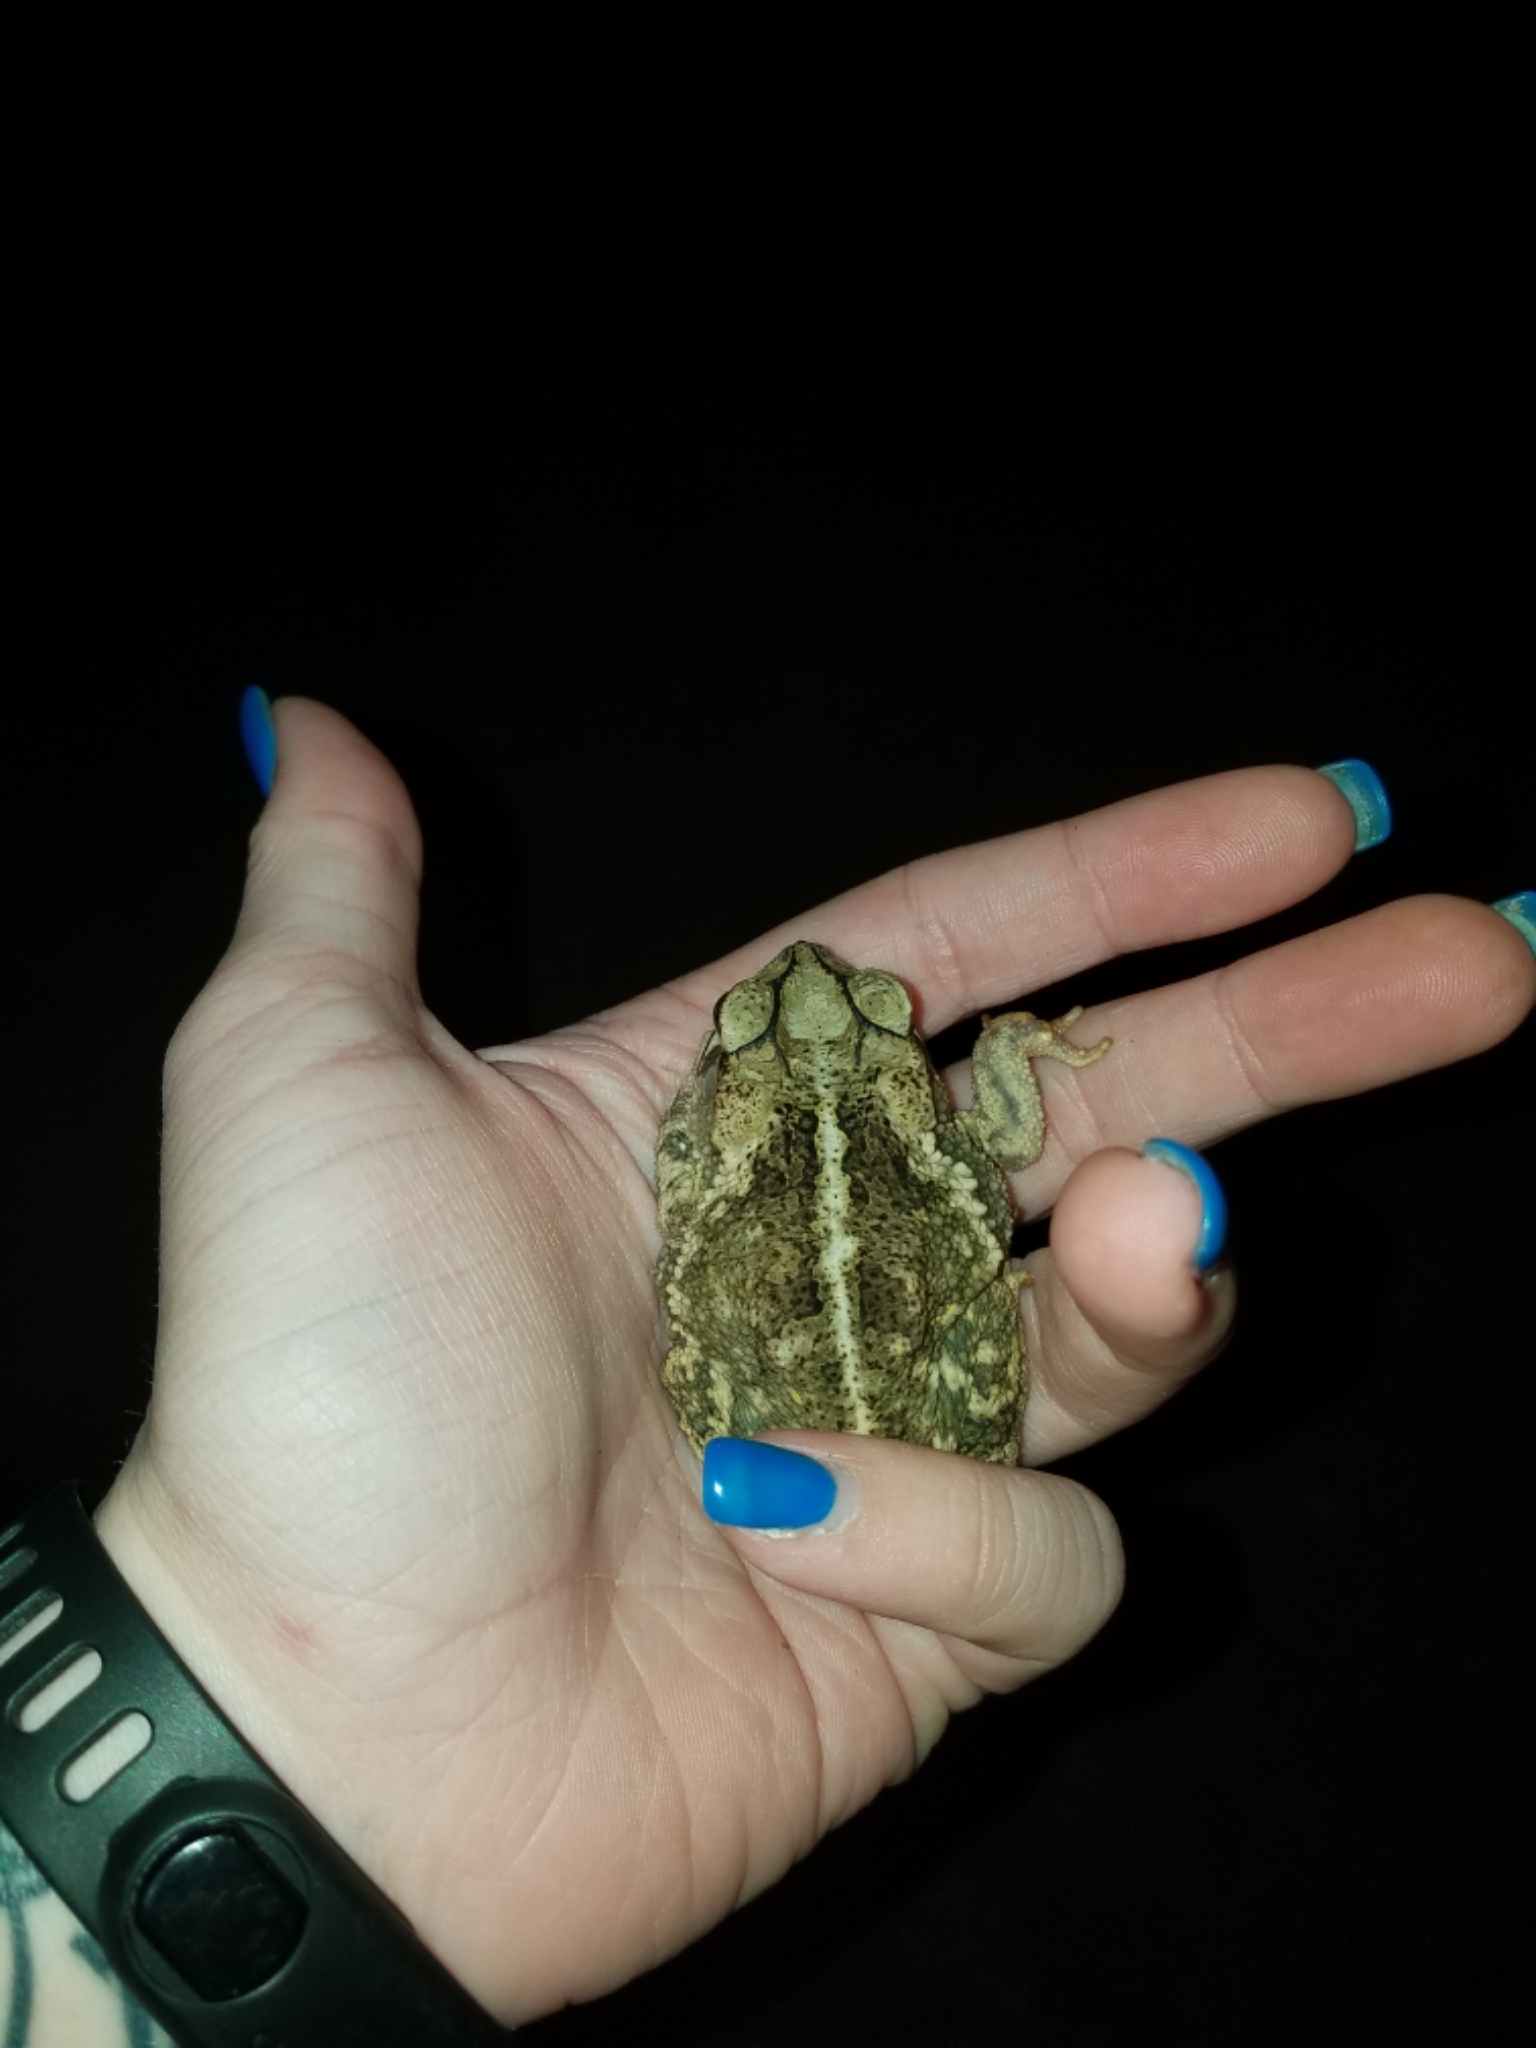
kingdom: Animalia
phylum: Chordata
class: Amphibia
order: Anura
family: Bufonidae
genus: Incilius
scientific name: Incilius nebulifer
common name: Gulf coast toad
